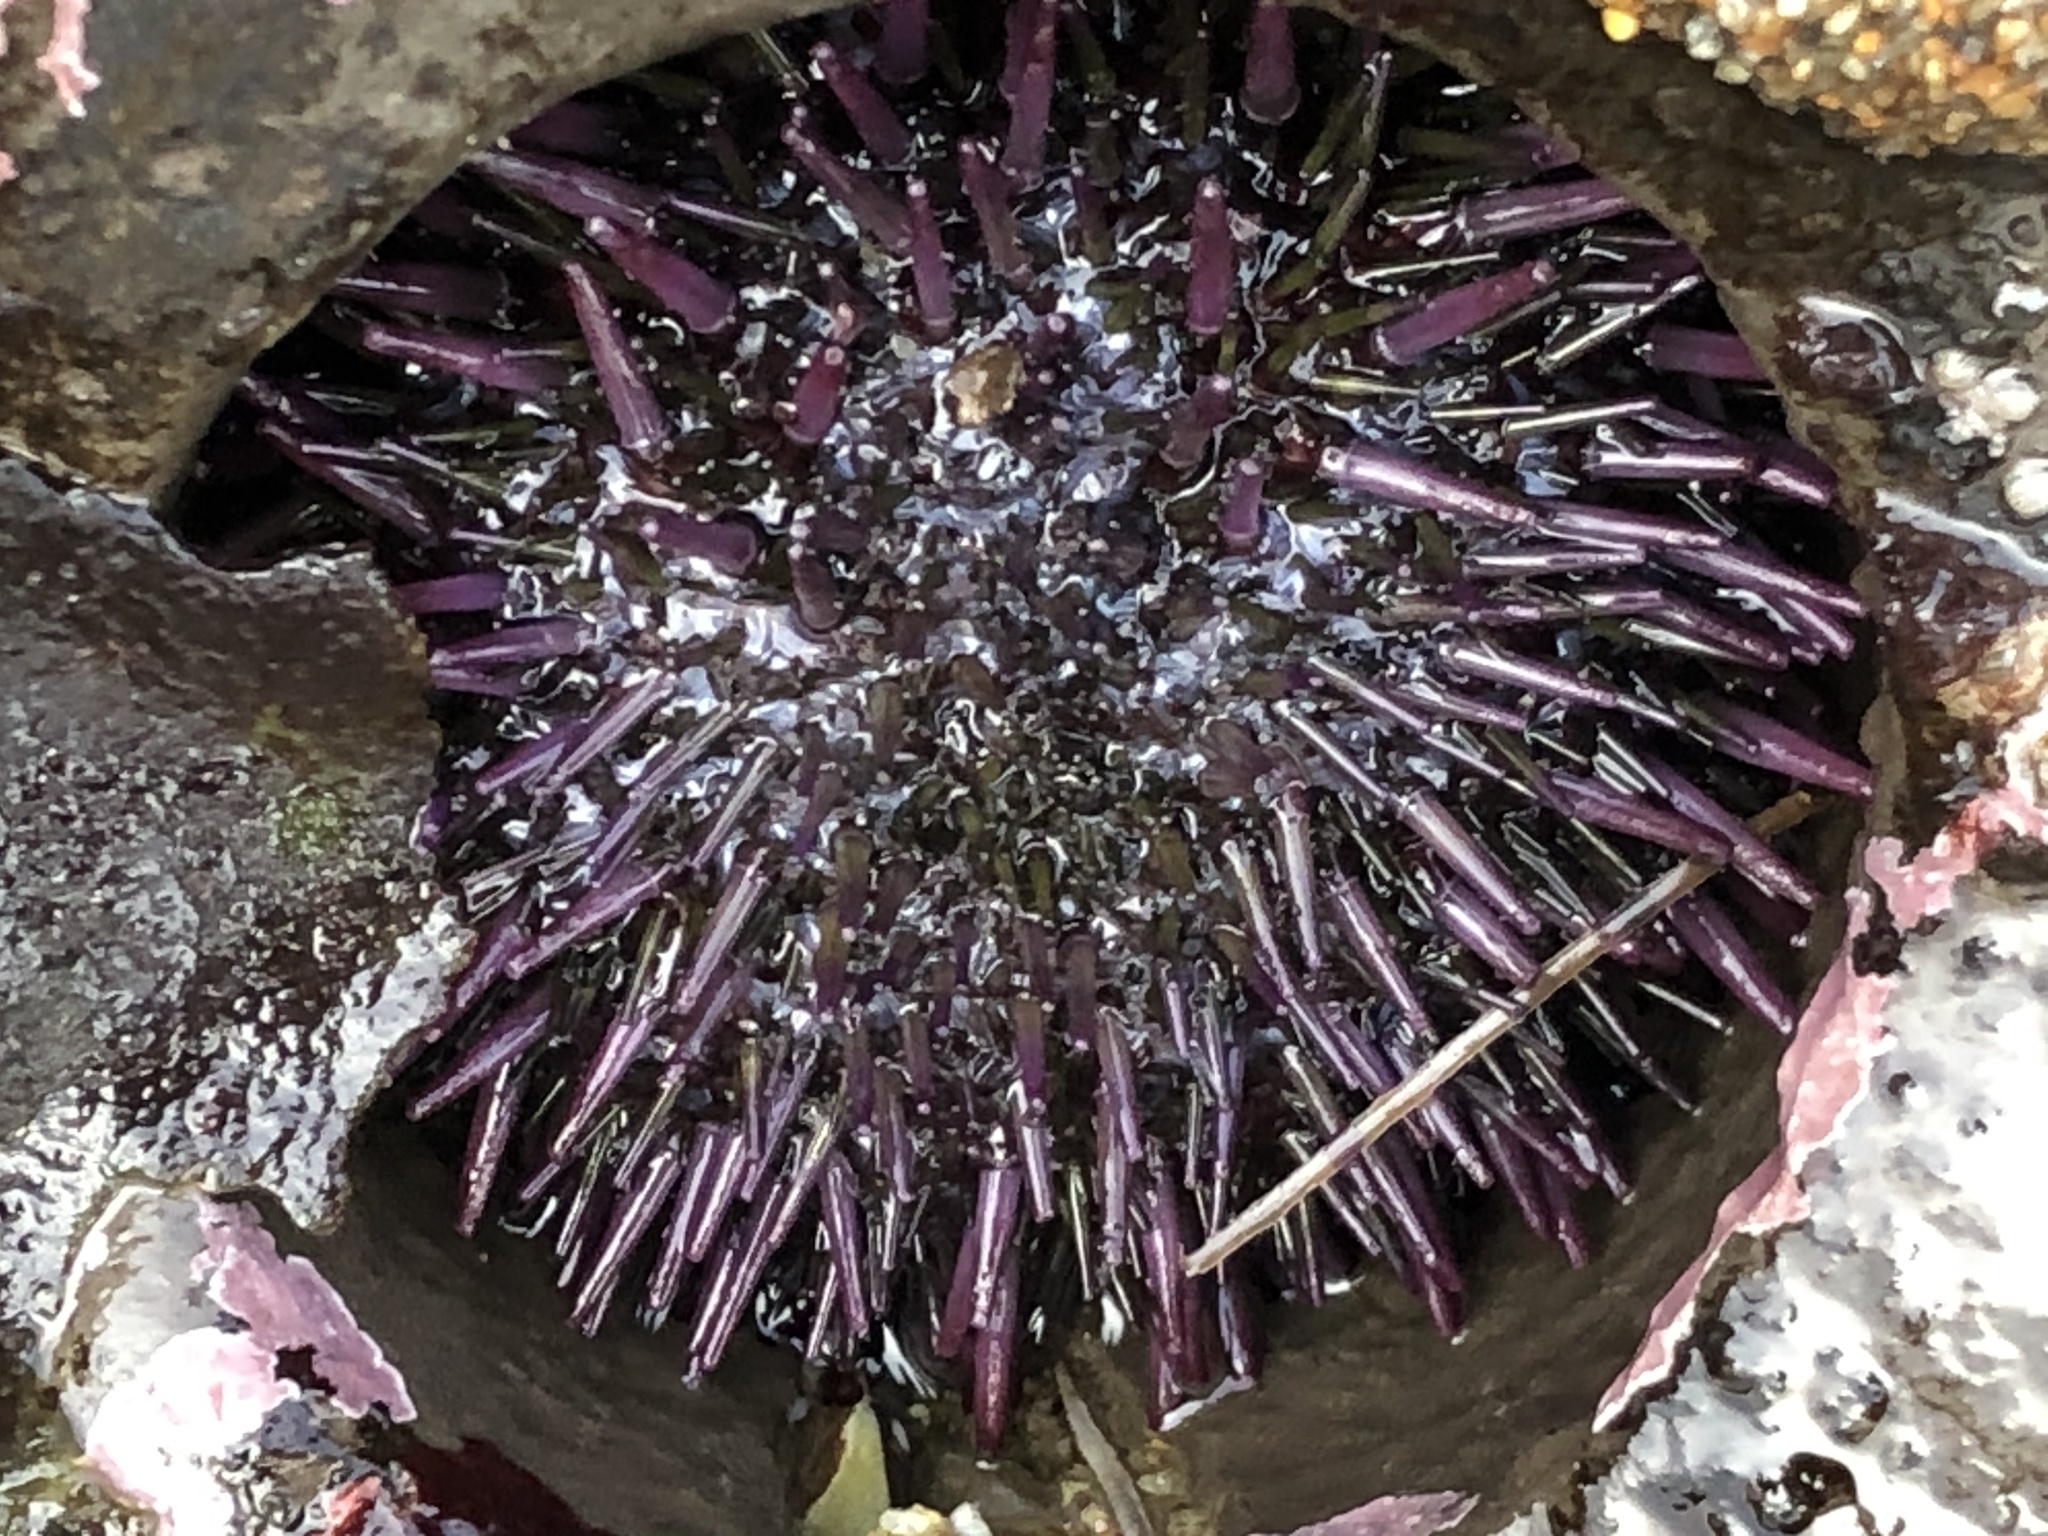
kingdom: Animalia
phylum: Echinodermata
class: Echinoidea
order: Camarodonta
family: Strongylocentrotidae
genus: Strongylocentrotus
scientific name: Strongylocentrotus purpuratus
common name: Purple sea urchin
